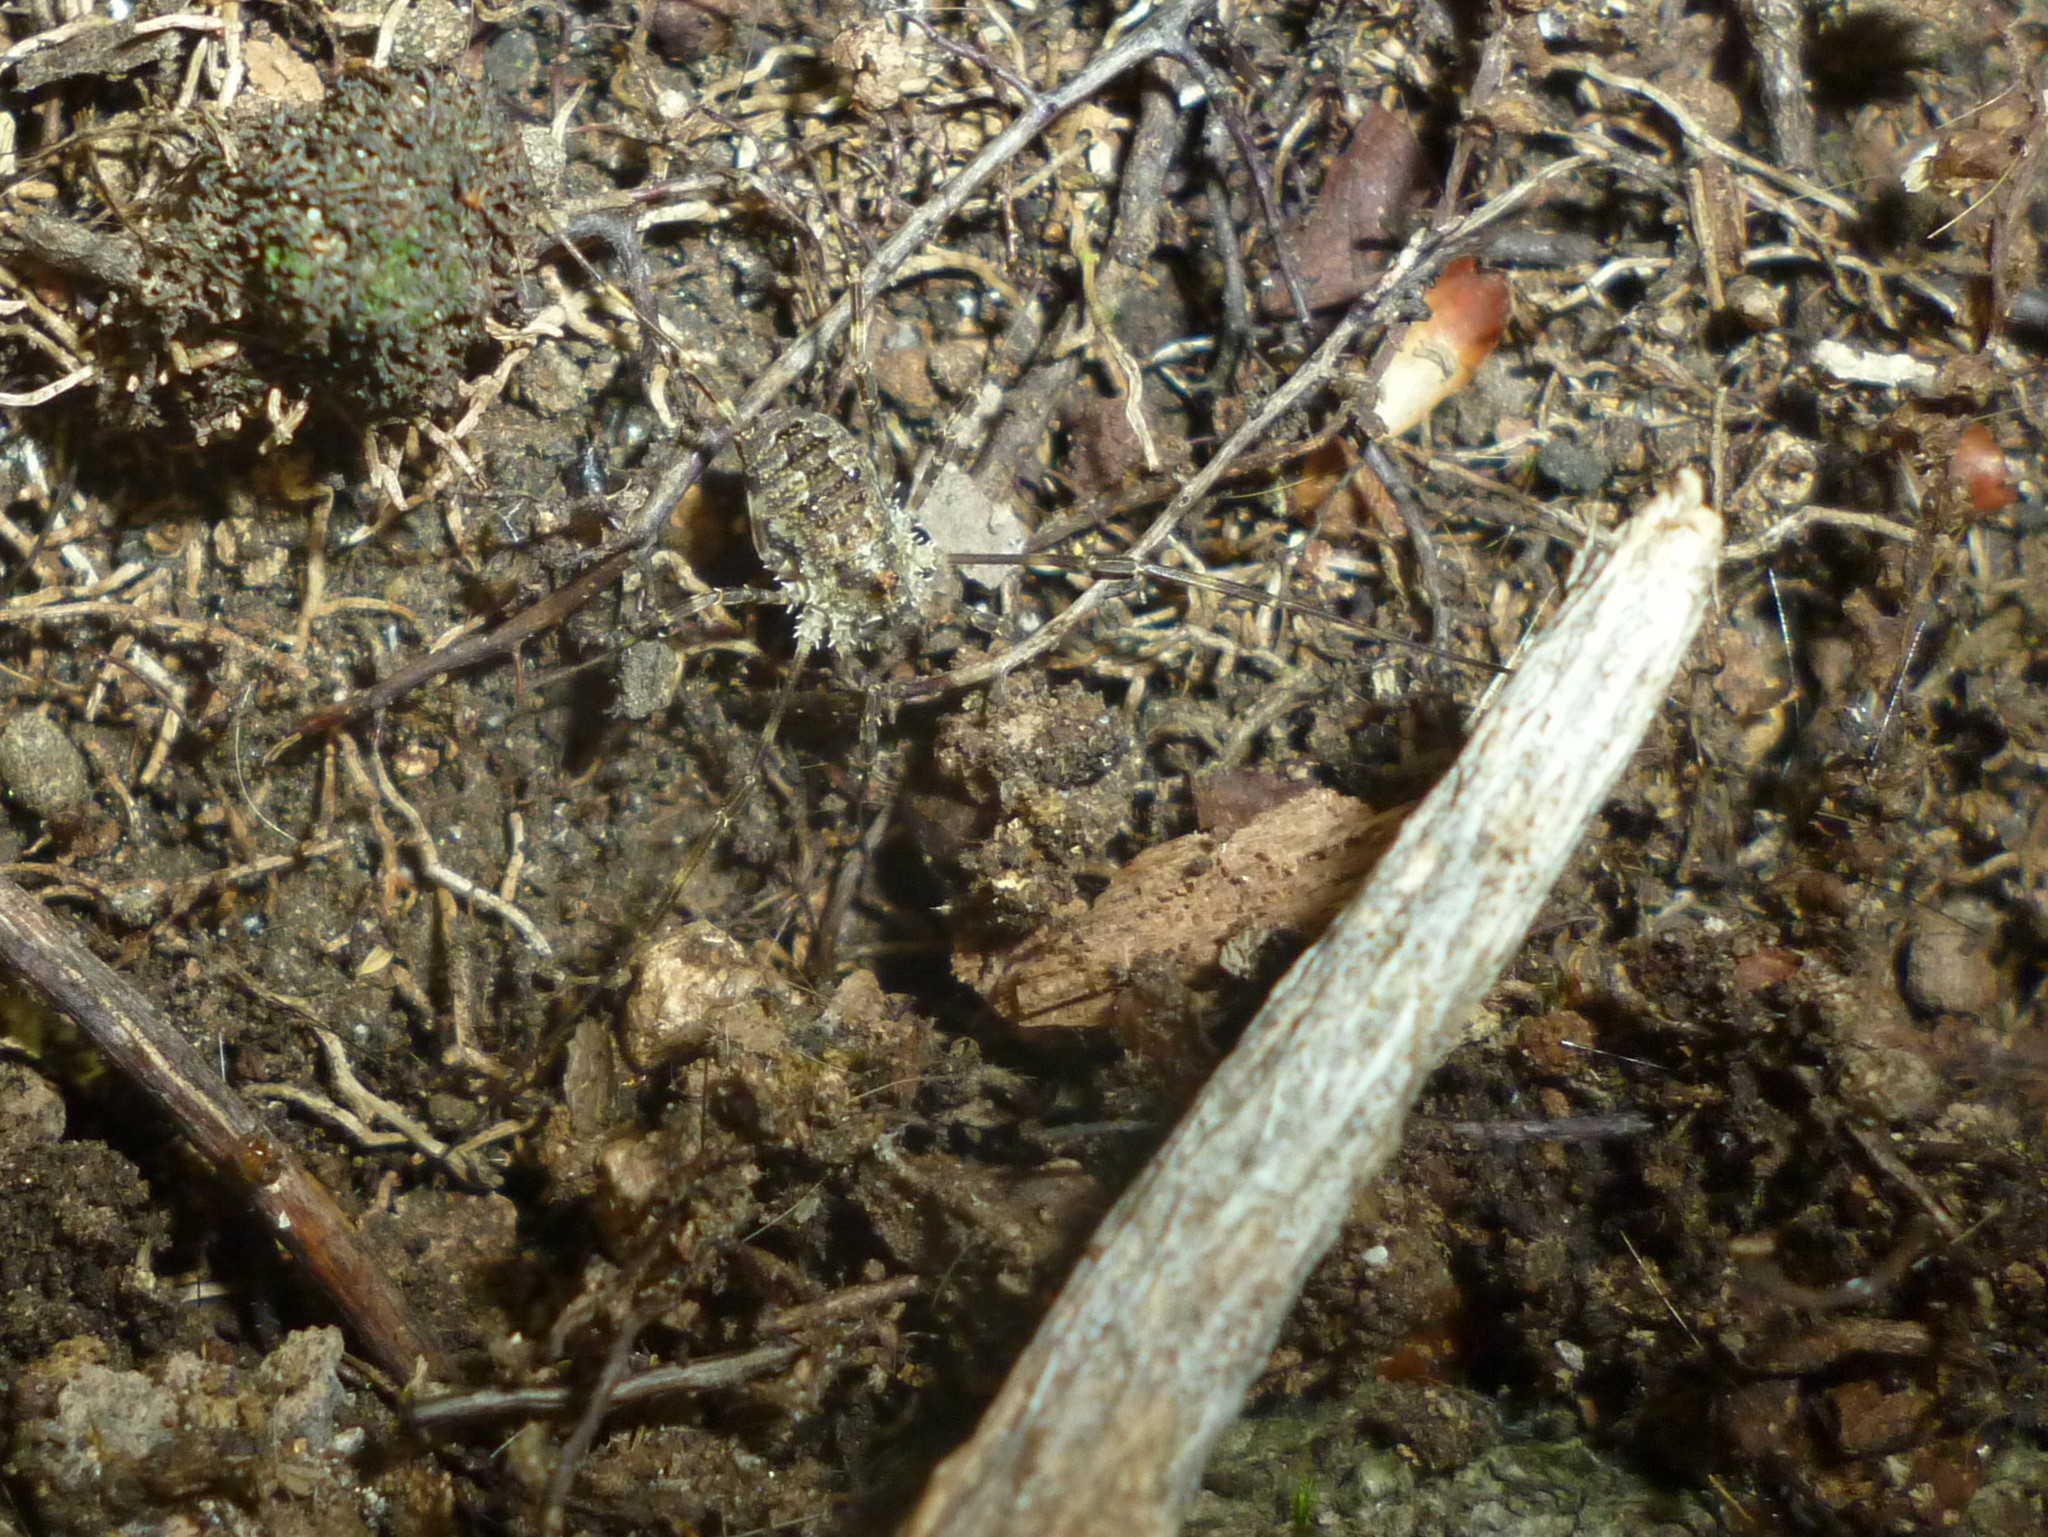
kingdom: Animalia
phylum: Arthropoda
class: Arachnida
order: Opiliones
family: Phalangiidae
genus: Odiellus
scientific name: Odiellus pictus
